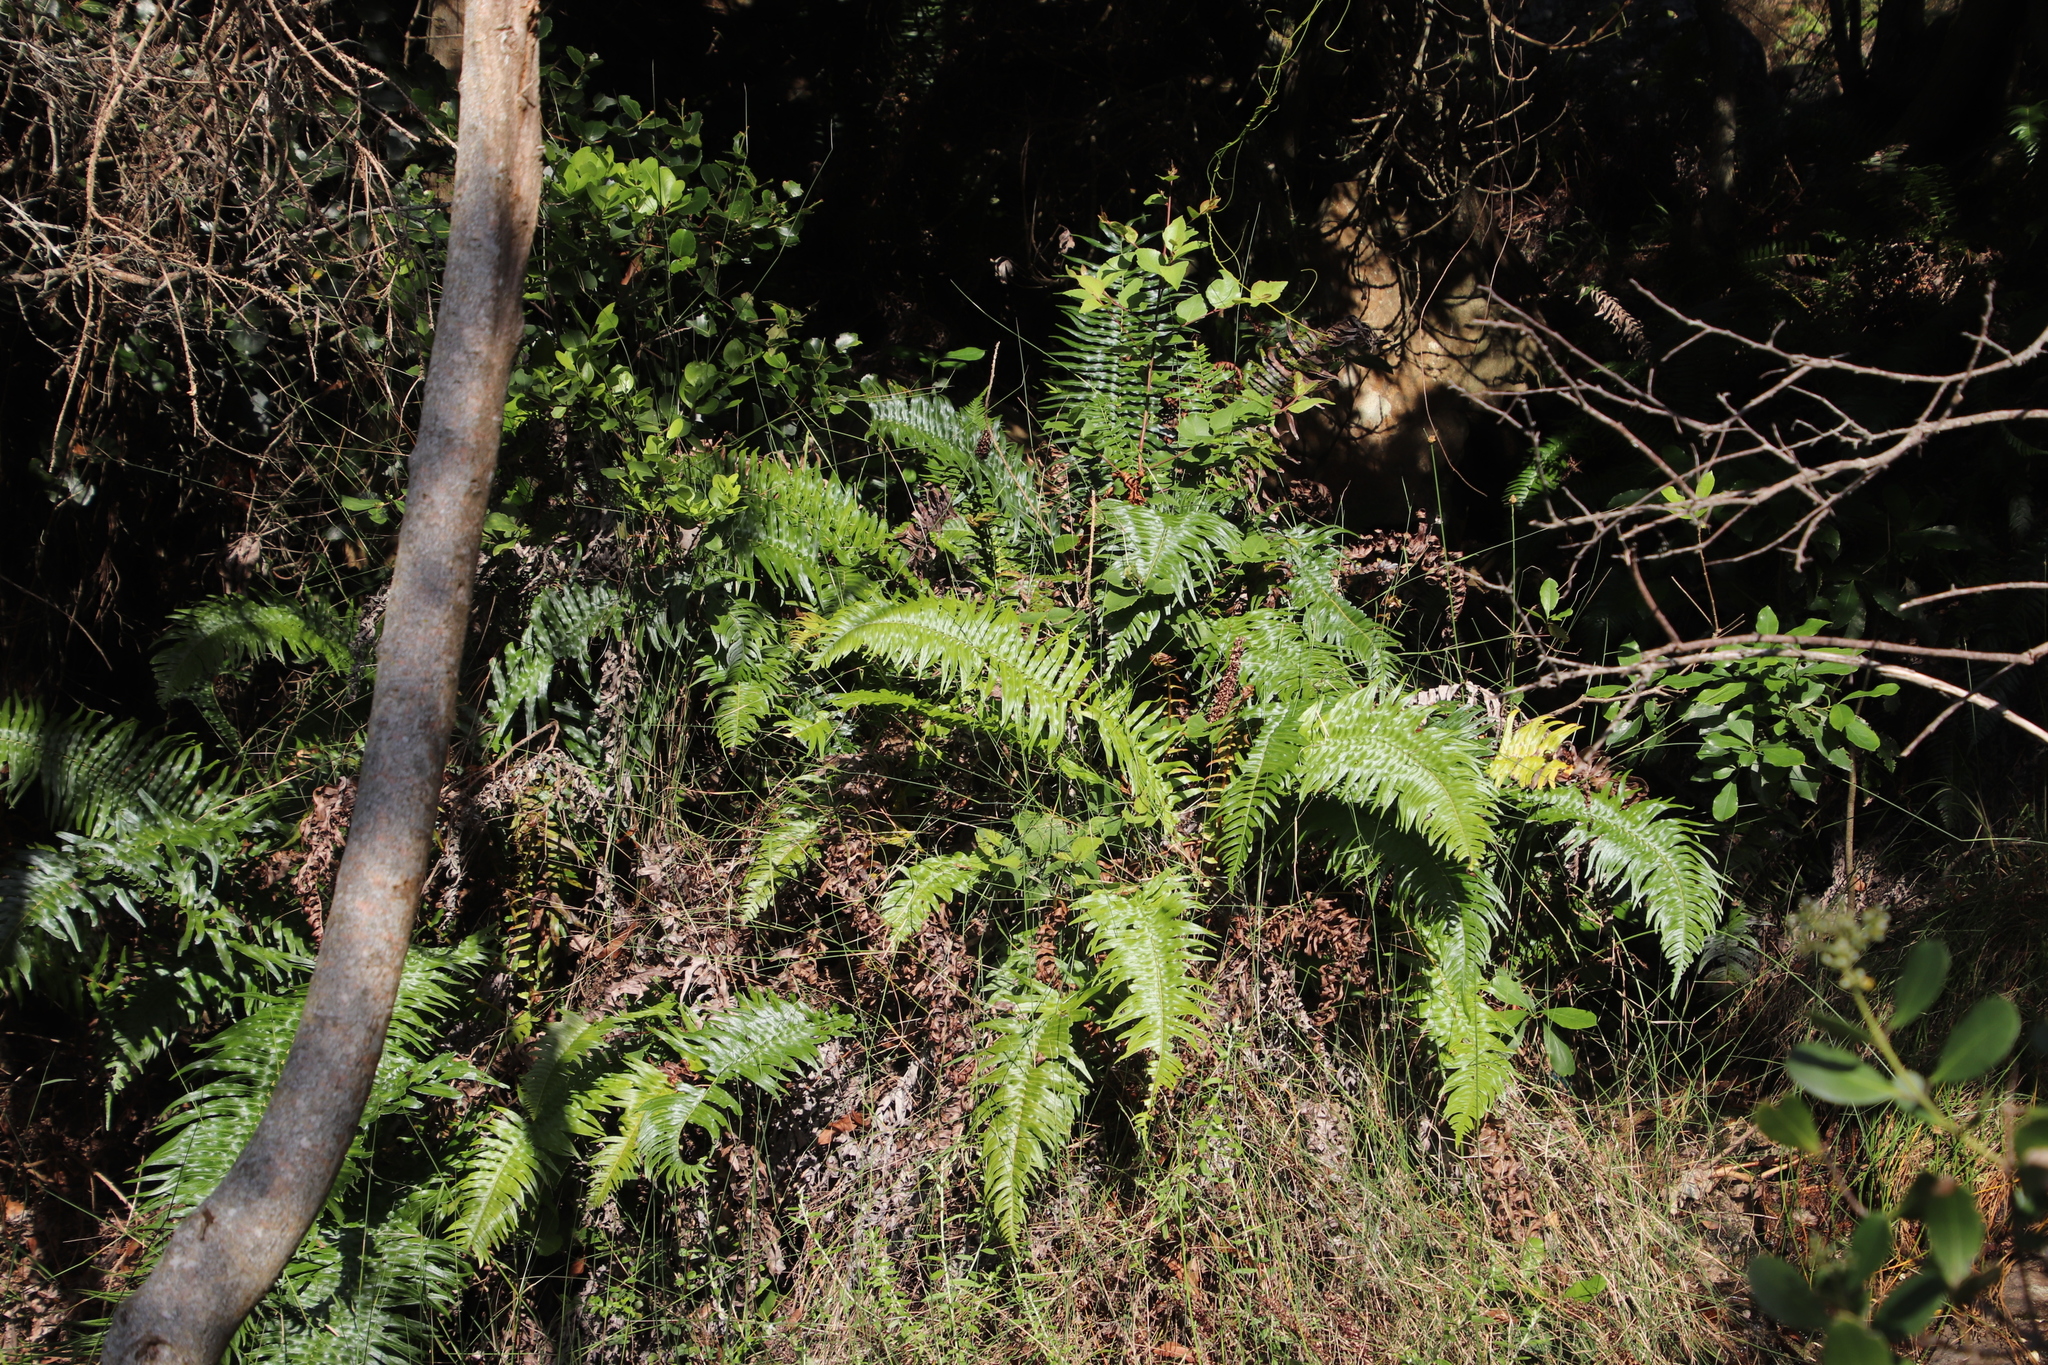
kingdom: Plantae
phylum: Tracheophyta
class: Polypodiopsida
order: Polypodiales
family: Blechnaceae
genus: Blechnum
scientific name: Blechnum punctulatum
